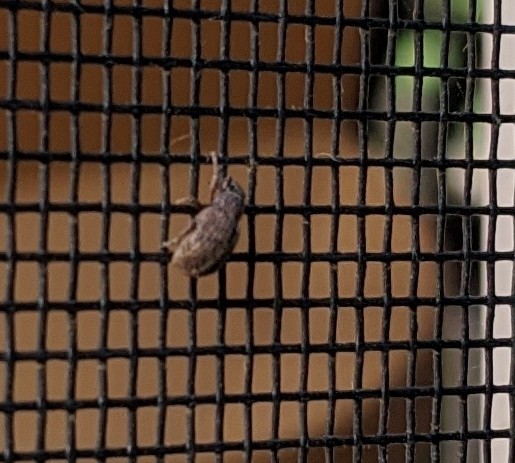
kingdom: Animalia
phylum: Arthropoda
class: Insecta
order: Coleoptera
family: Curculionidae
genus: Strophosoma
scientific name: Strophosoma melanogrammum
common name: Weevil
